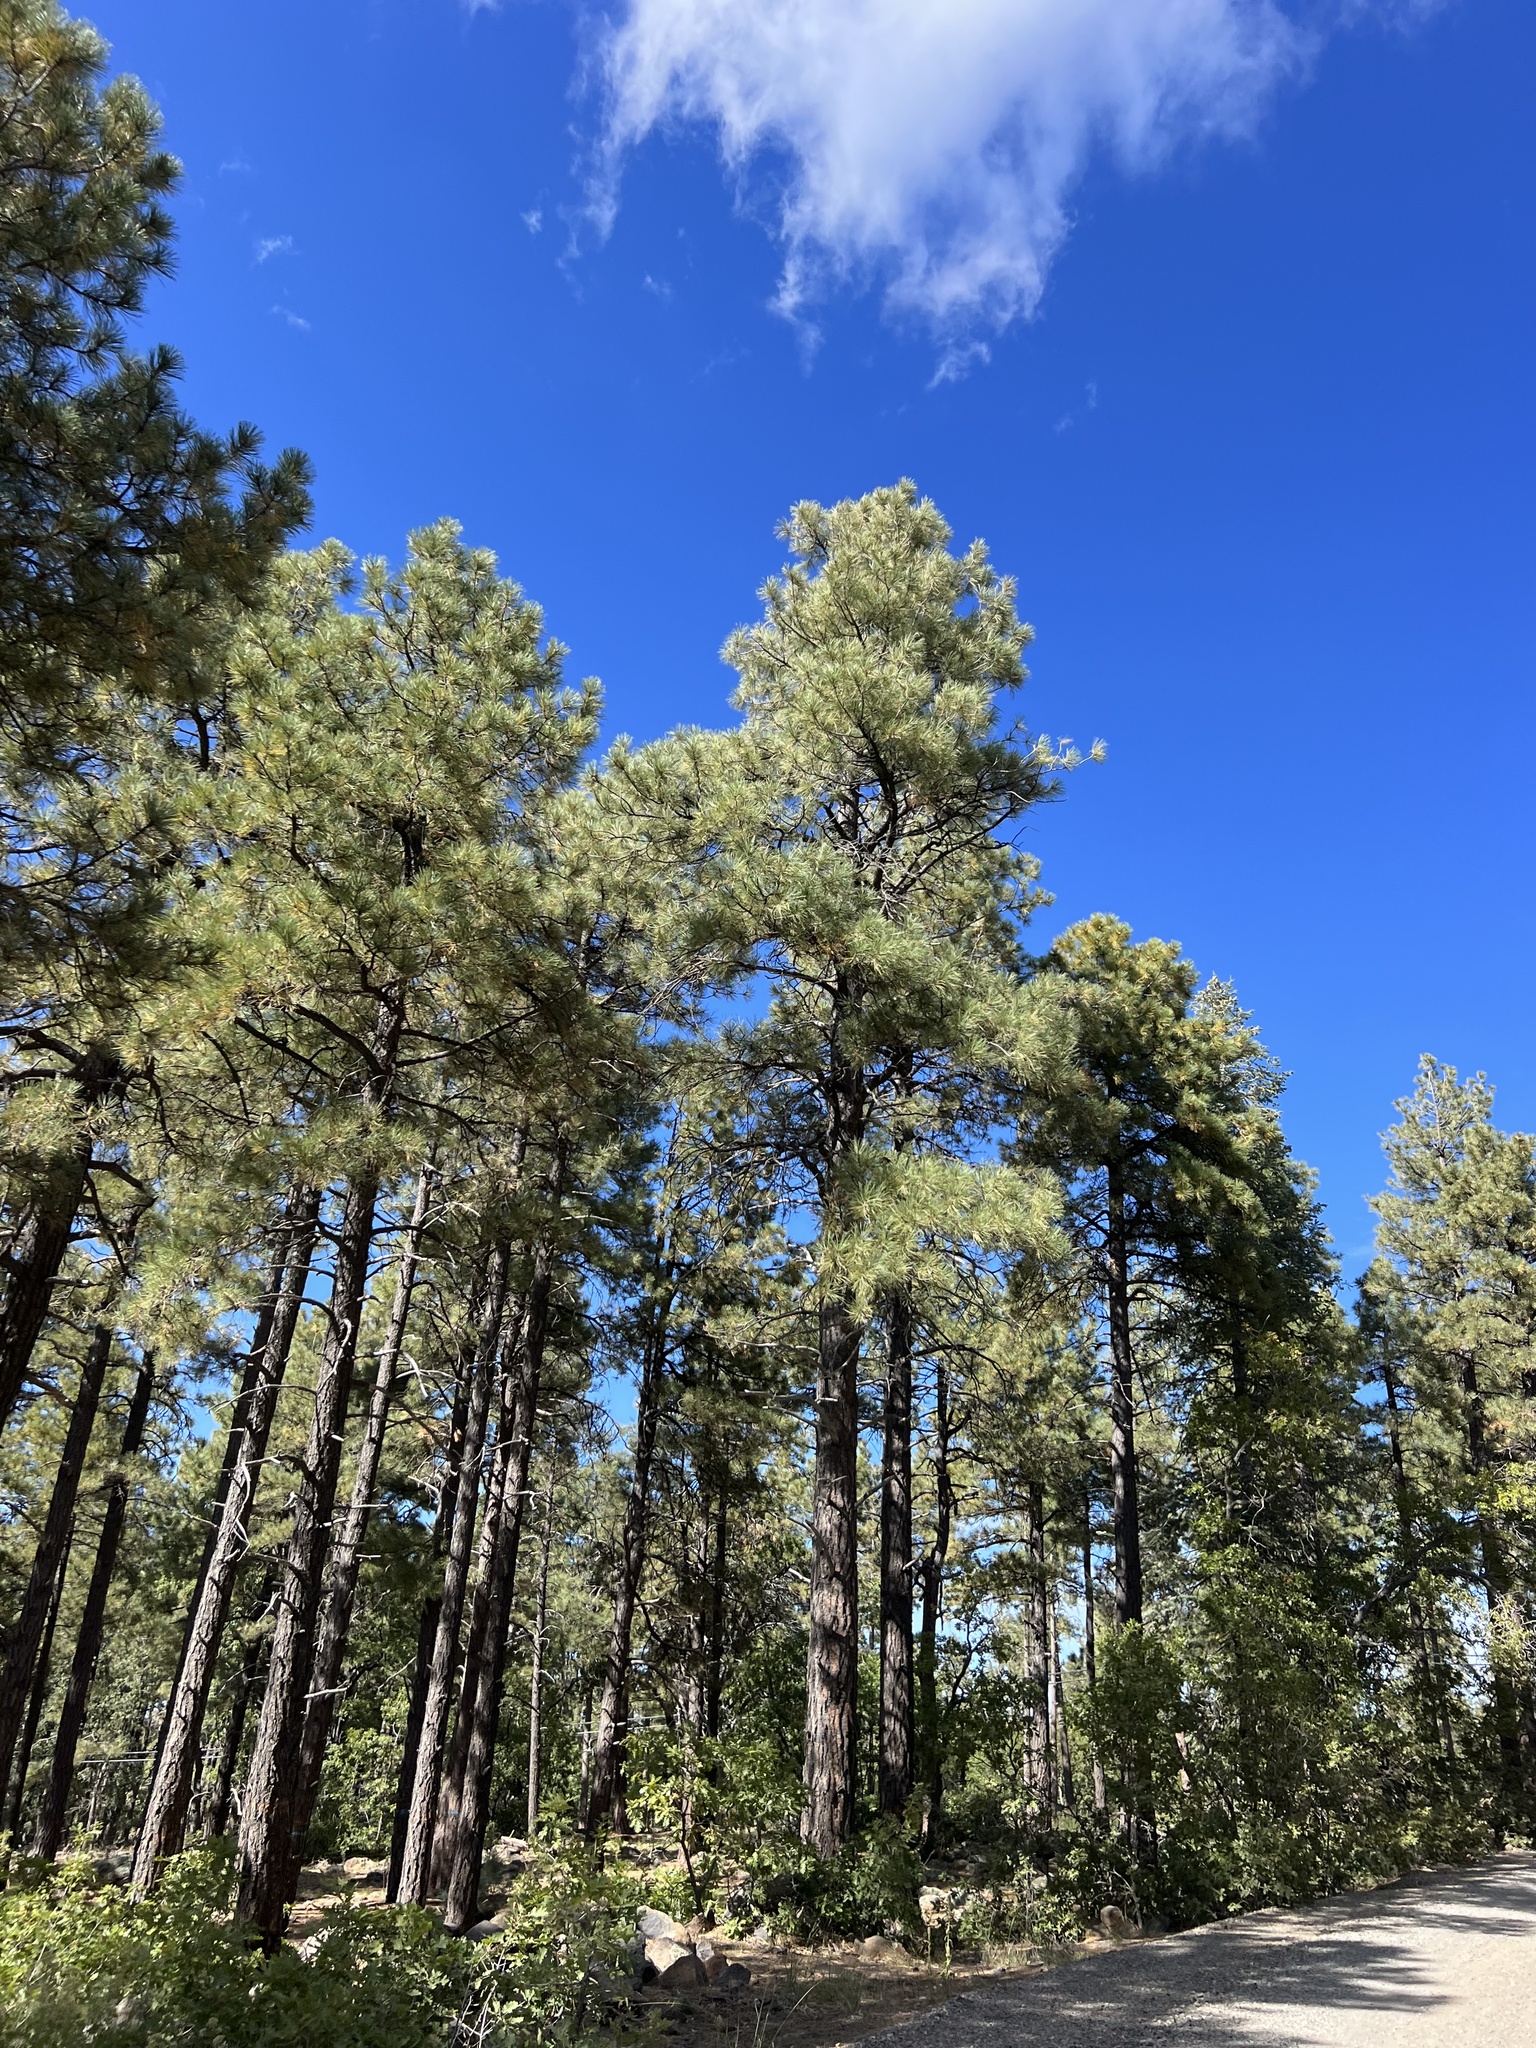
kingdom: Plantae
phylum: Tracheophyta
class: Pinopsida
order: Pinales
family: Pinaceae
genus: Pinus
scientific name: Pinus ponderosa
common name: Western yellow-pine
